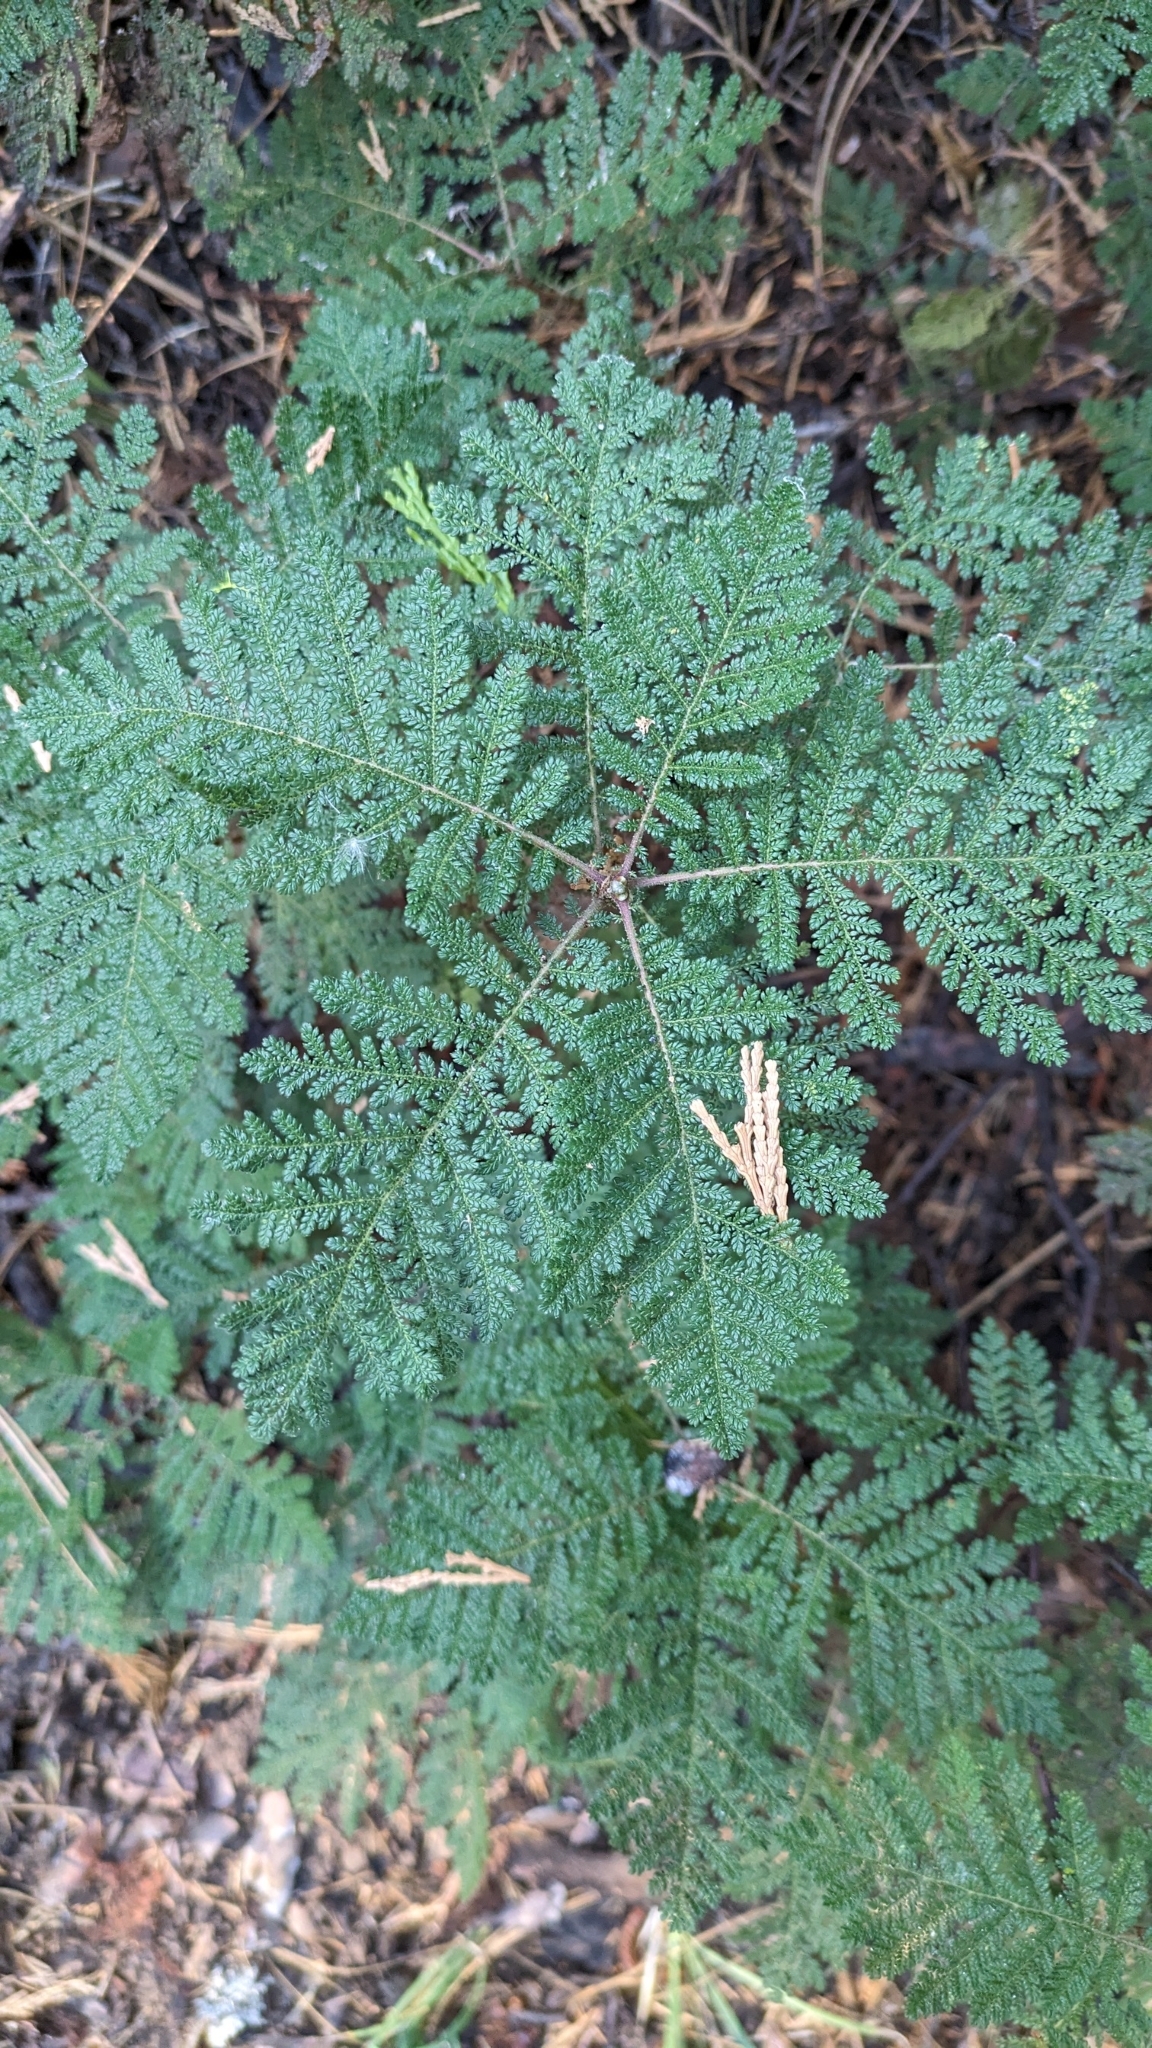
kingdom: Plantae
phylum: Tracheophyta
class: Magnoliopsida
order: Rosales
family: Rosaceae
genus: Chamaebatia
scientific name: Chamaebatia foliolosa
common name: Mountain misery
